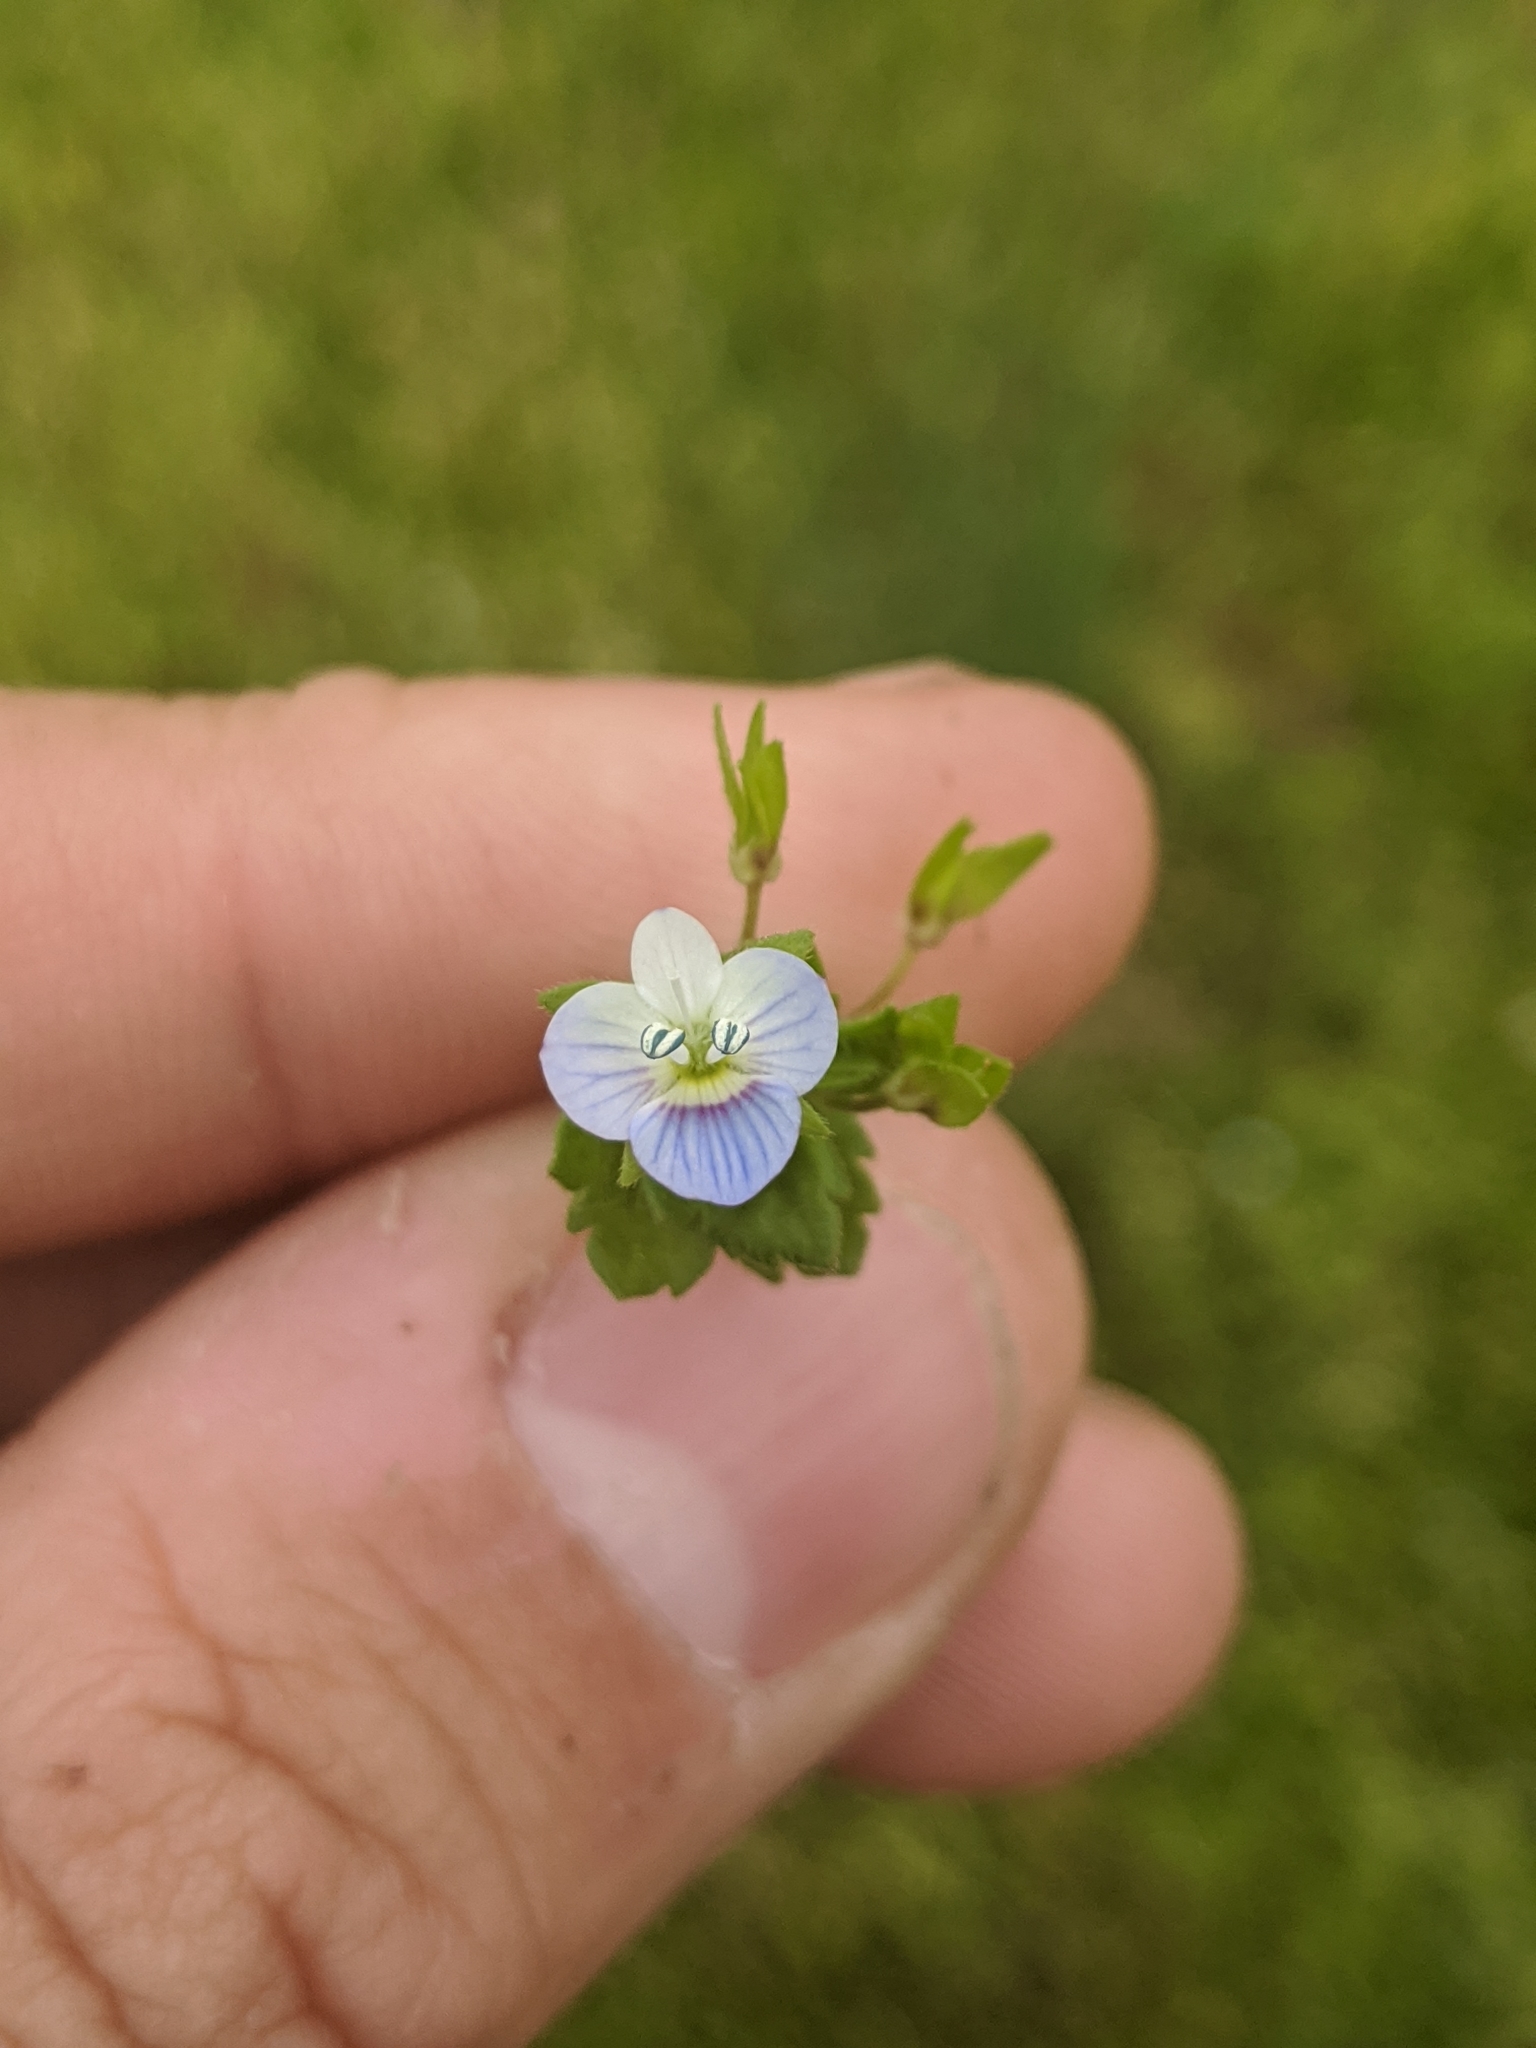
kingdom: Plantae
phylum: Tracheophyta
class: Magnoliopsida
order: Lamiales
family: Plantaginaceae
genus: Veronica
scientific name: Veronica persica
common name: Common field-speedwell
